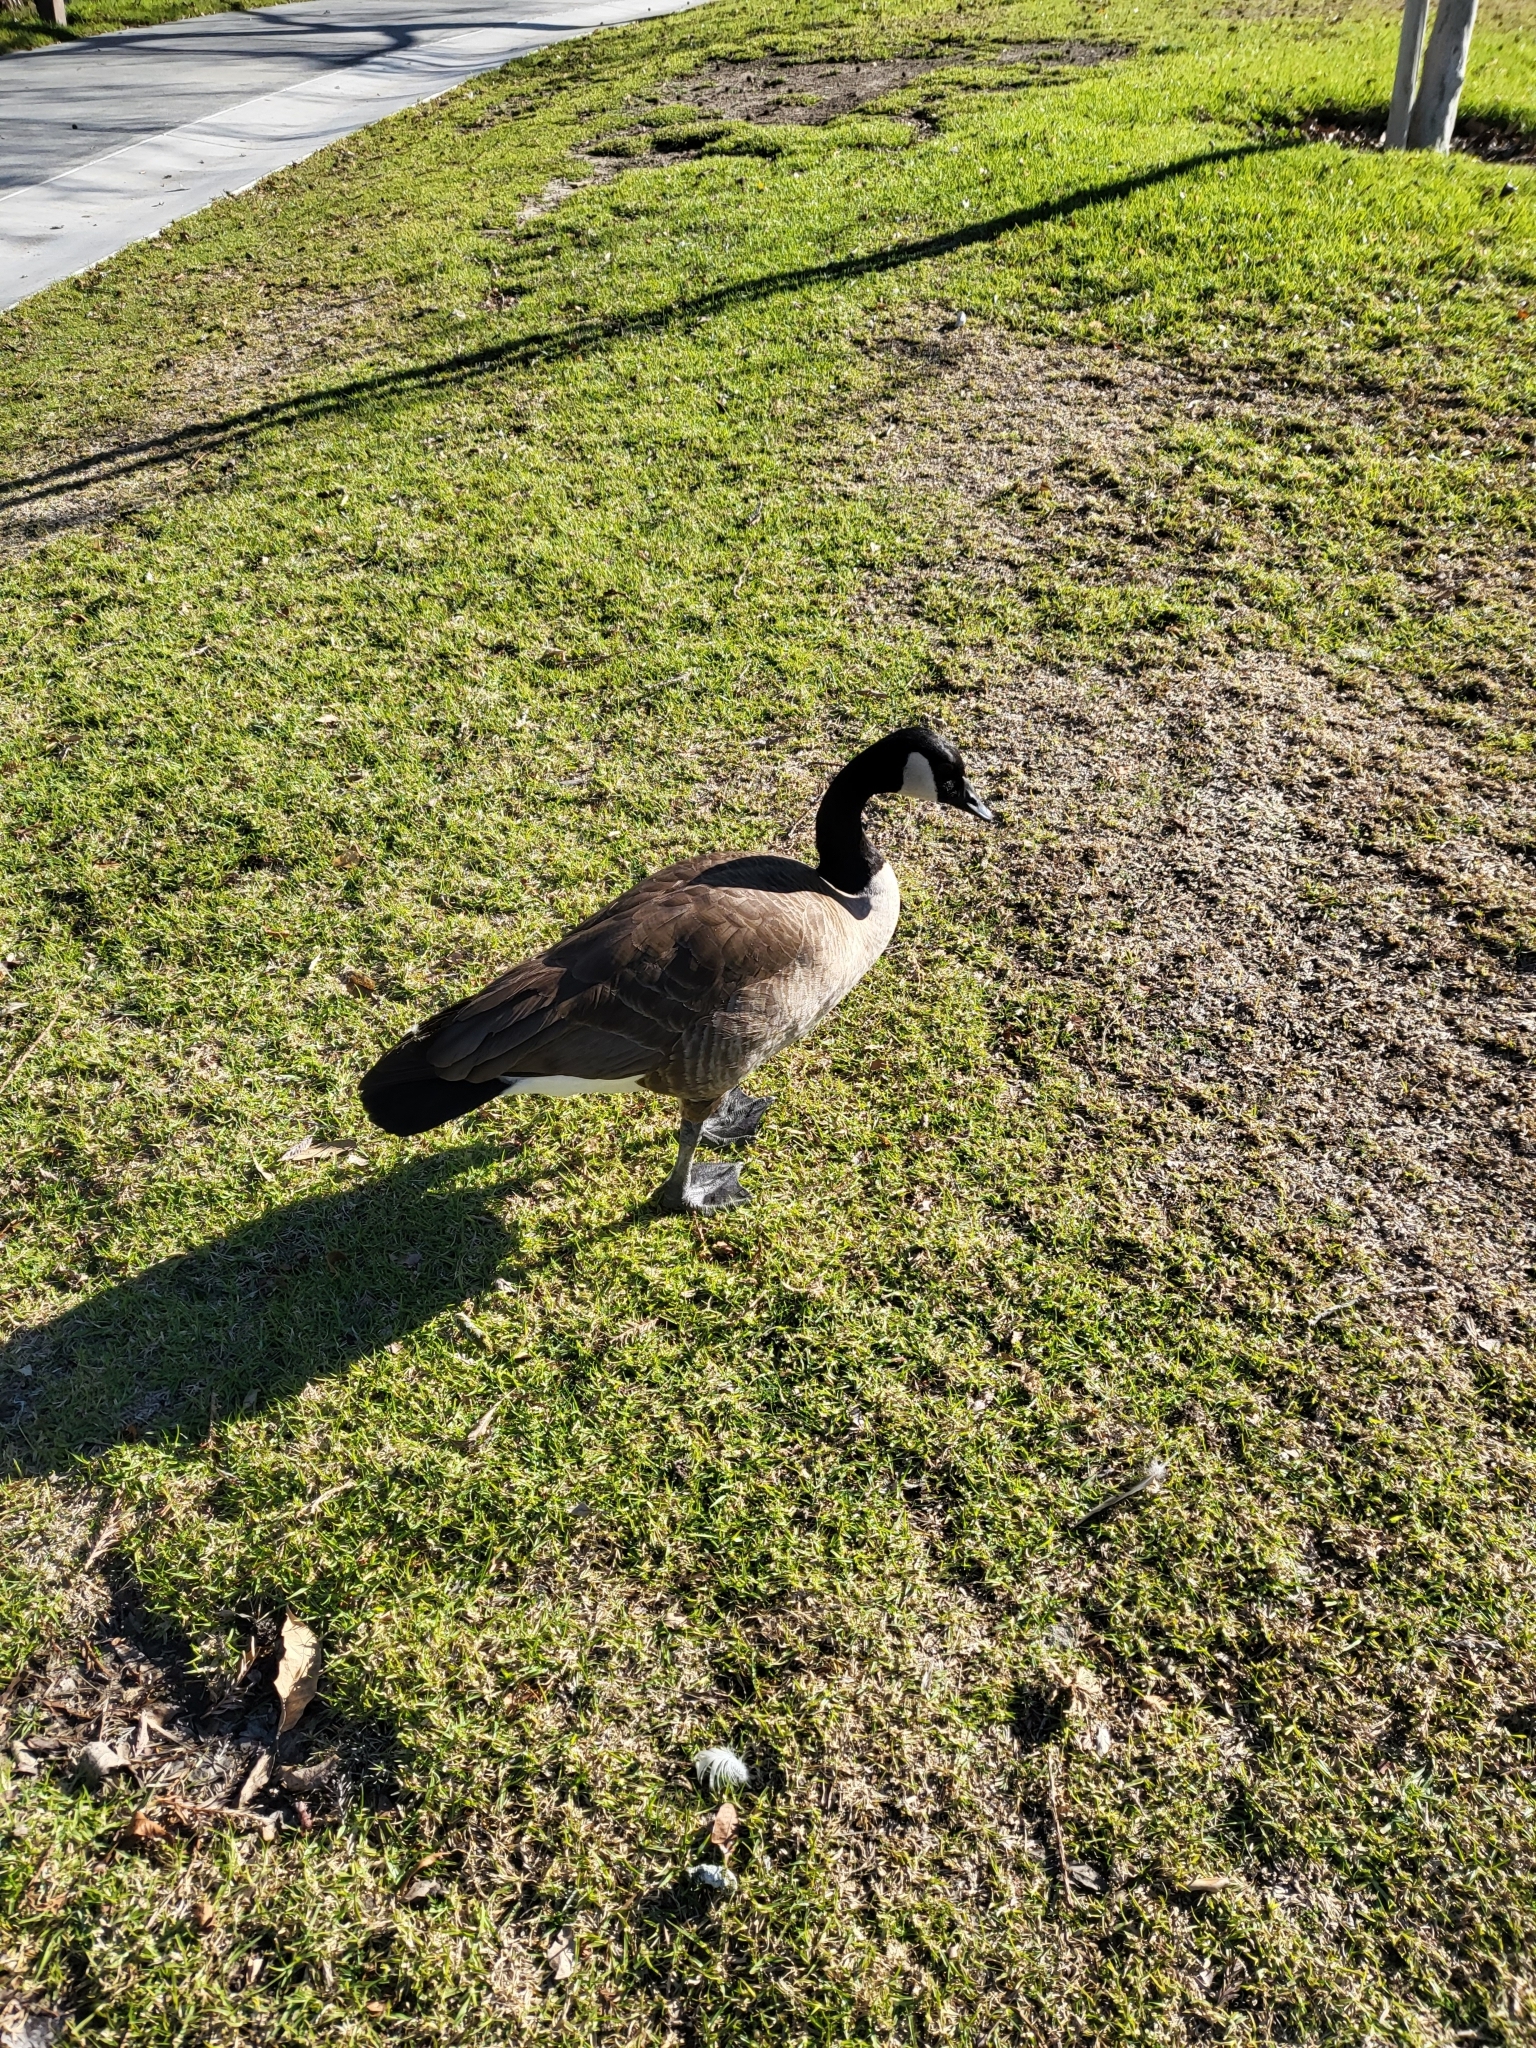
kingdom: Animalia
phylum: Chordata
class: Aves
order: Anseriformes
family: Anatidae
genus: Branta
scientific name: Branta canadensis
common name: Canada goose
